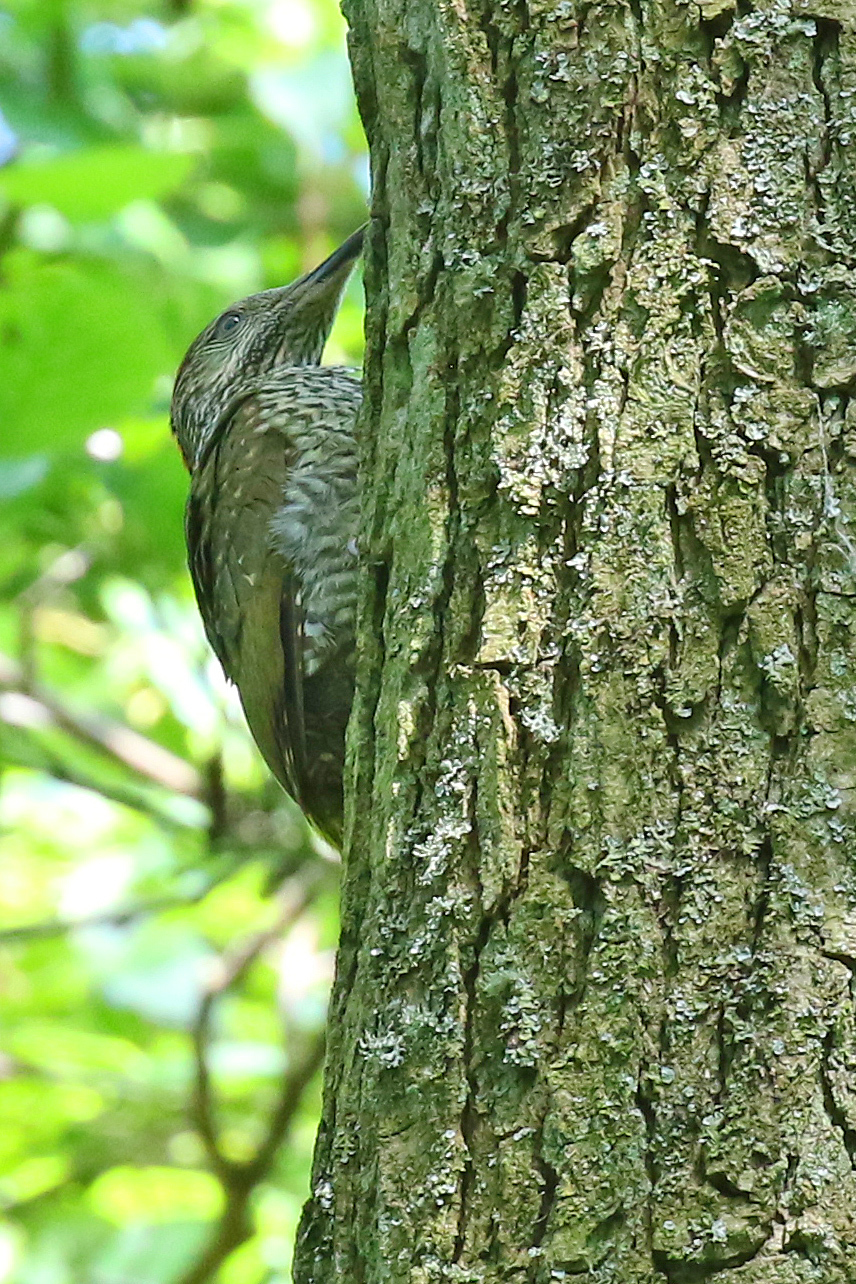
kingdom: Animalia
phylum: Chordata
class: Aves
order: Piciformes
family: Picidae
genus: Picus
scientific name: Picus viridis
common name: European green woodpecker
